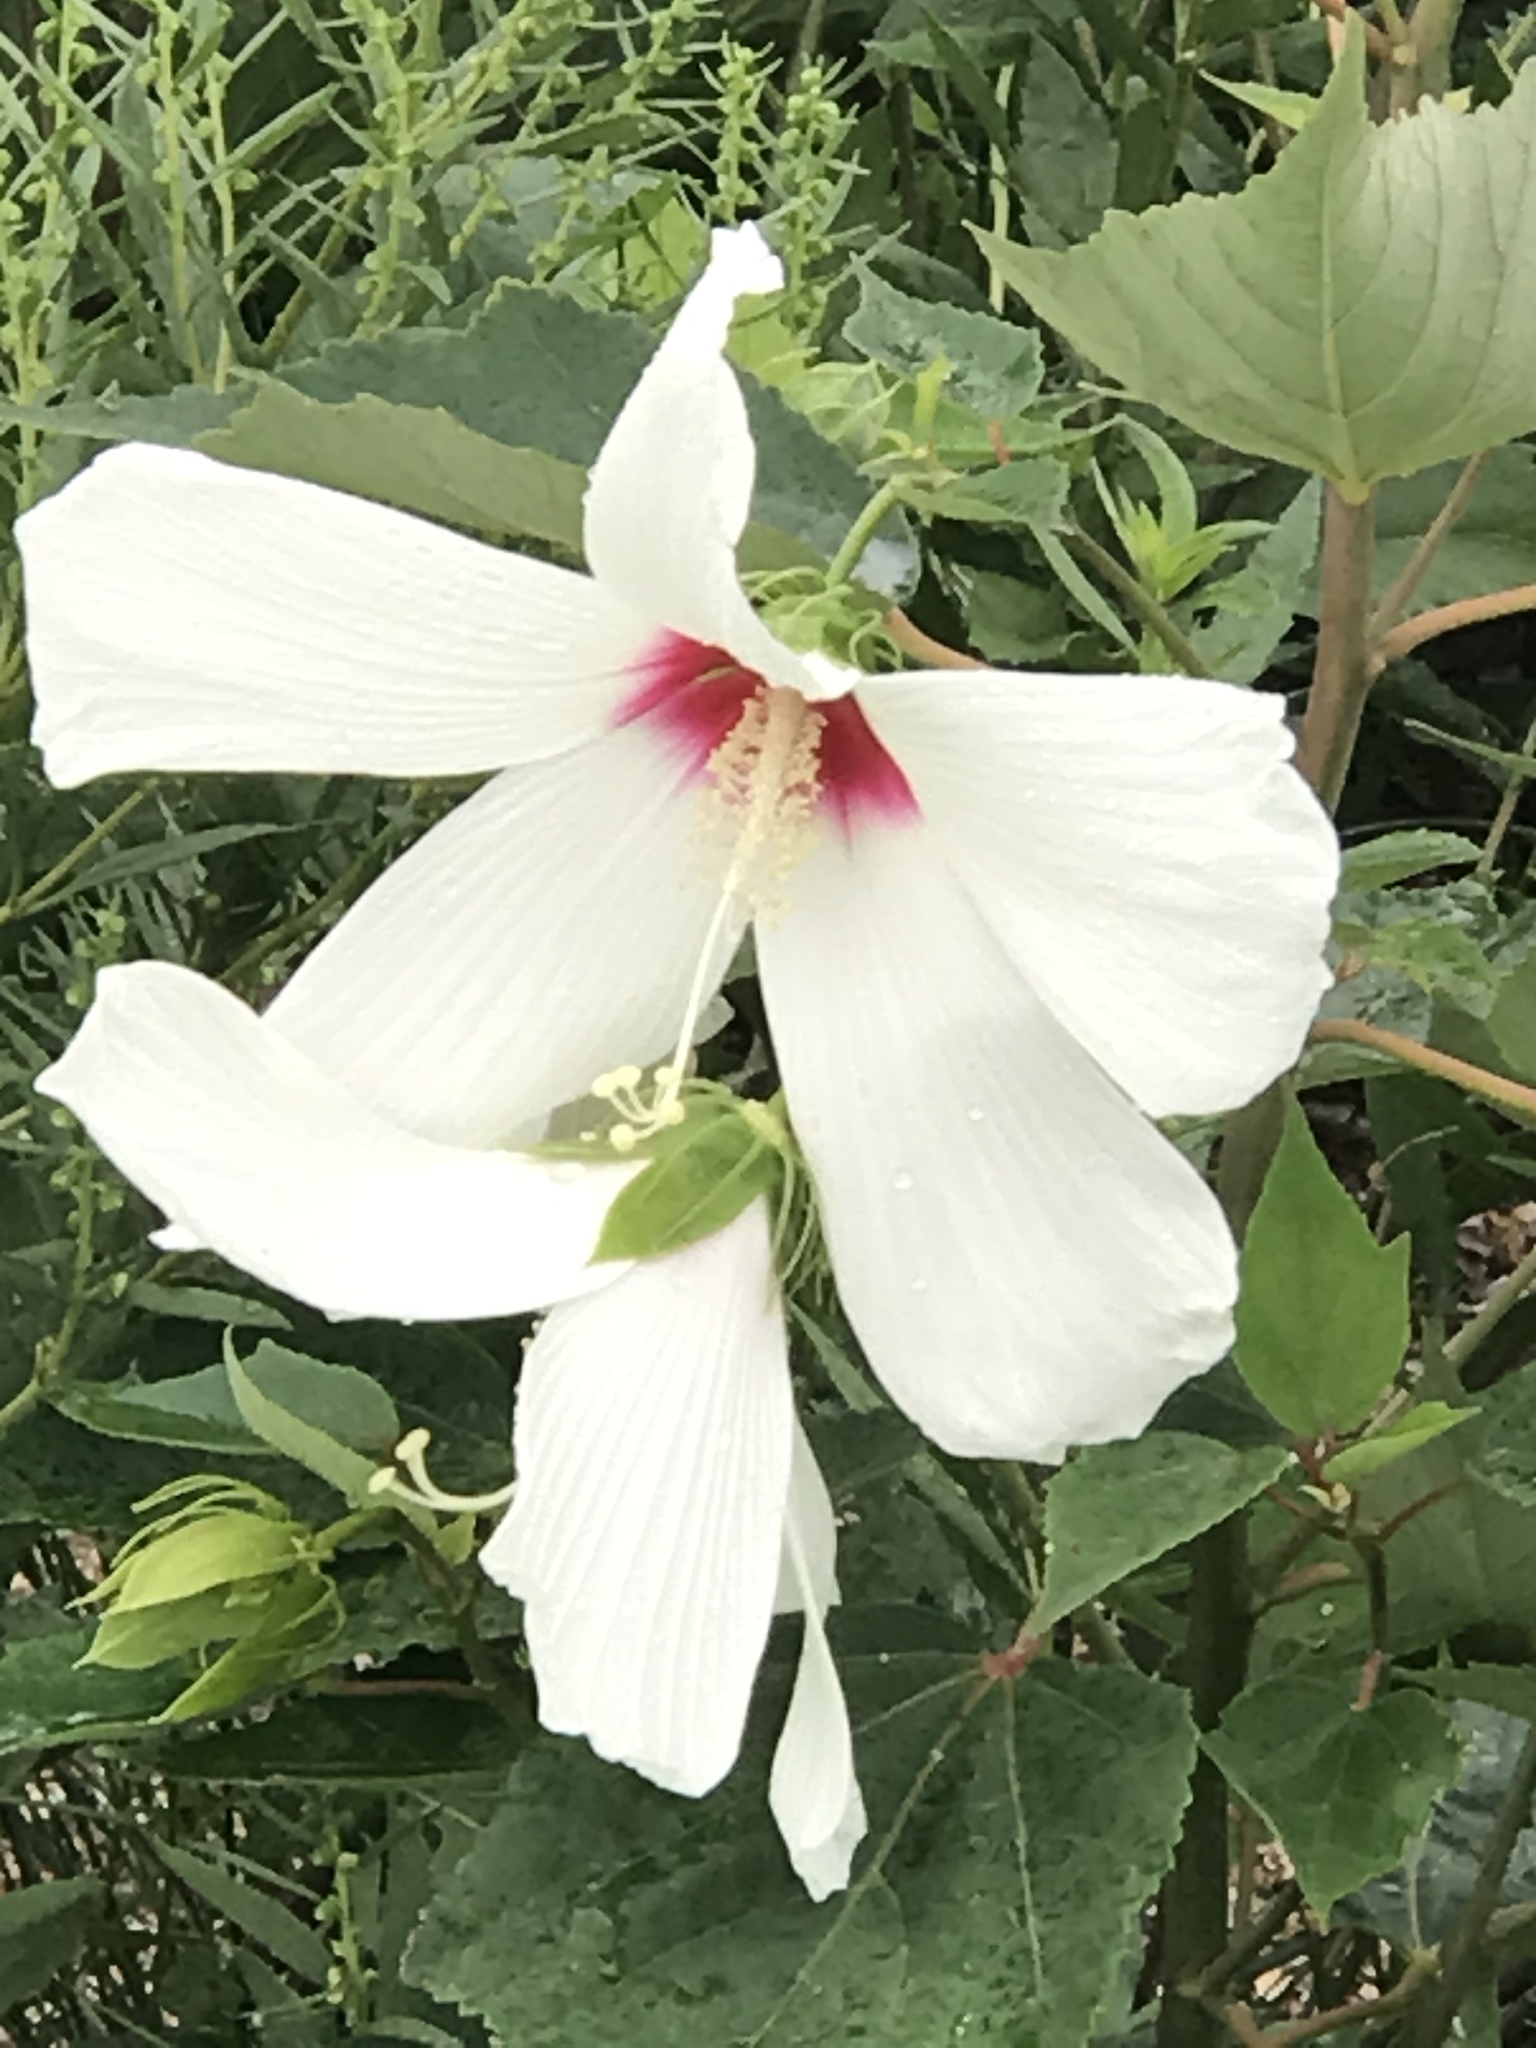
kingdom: Plantae
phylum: Tracheophyta
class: Magnoliopsida
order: Malvales
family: Malvaceae
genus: Hibiscus
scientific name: Hibiscus moscheutos
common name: Common rose-mallow
